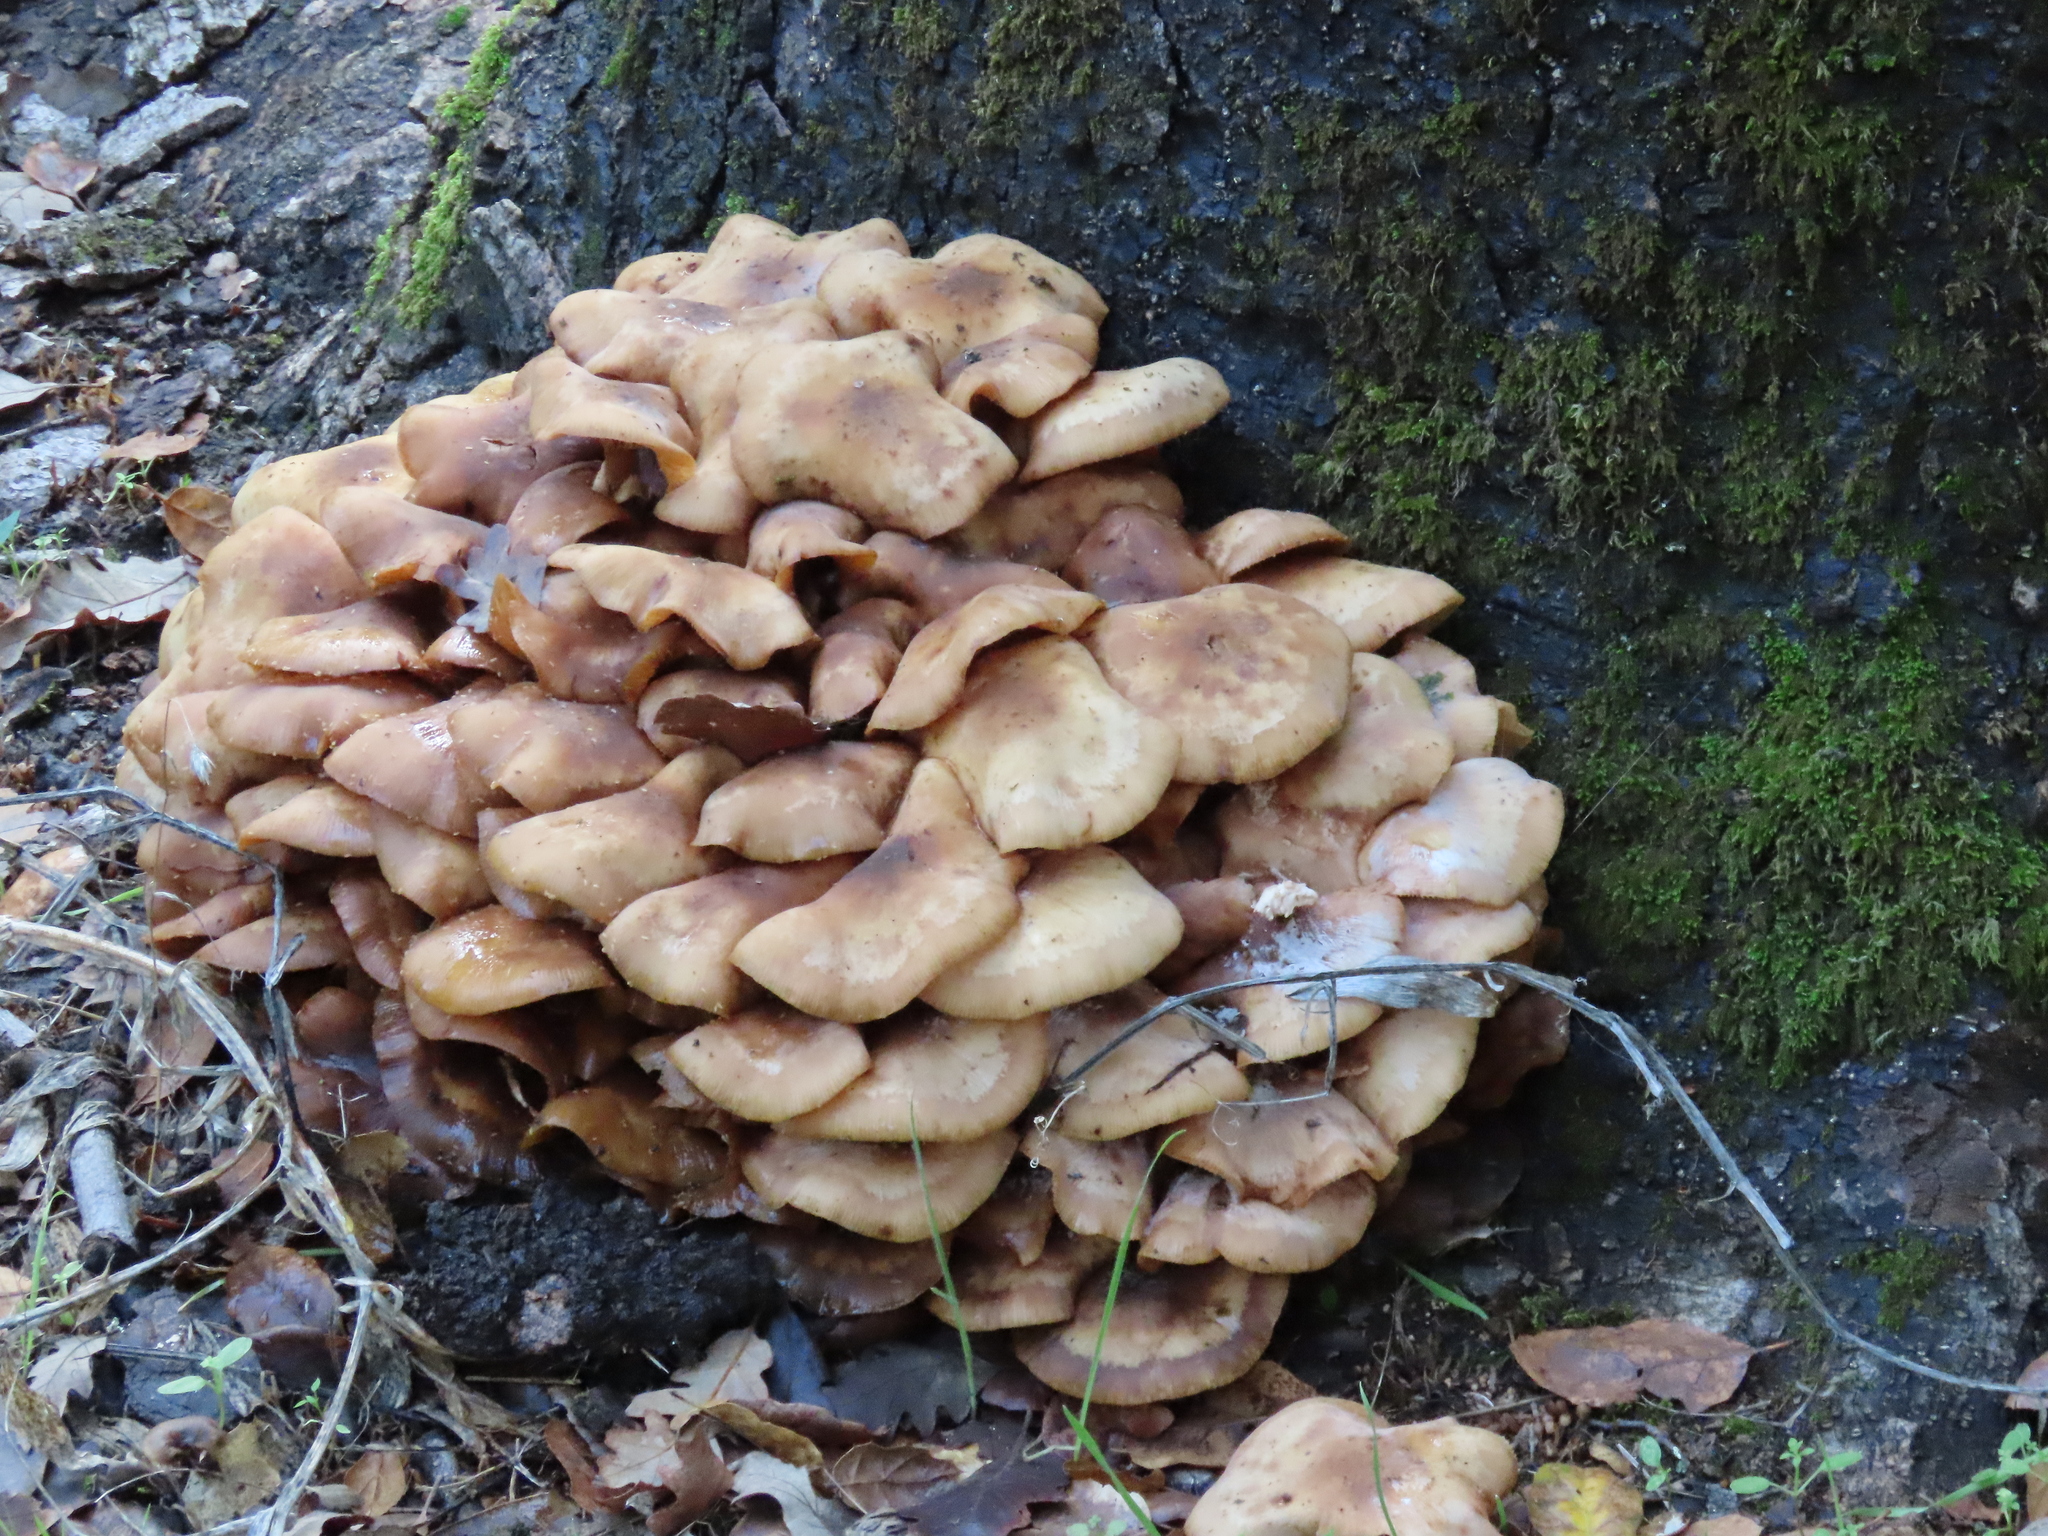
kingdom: Fungi
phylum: Basidiomycota
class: Agaricomycetes
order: Agaricales
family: Physalacriaceae
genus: Armillaria
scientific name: Armillaria mellea
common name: Honey fungus
